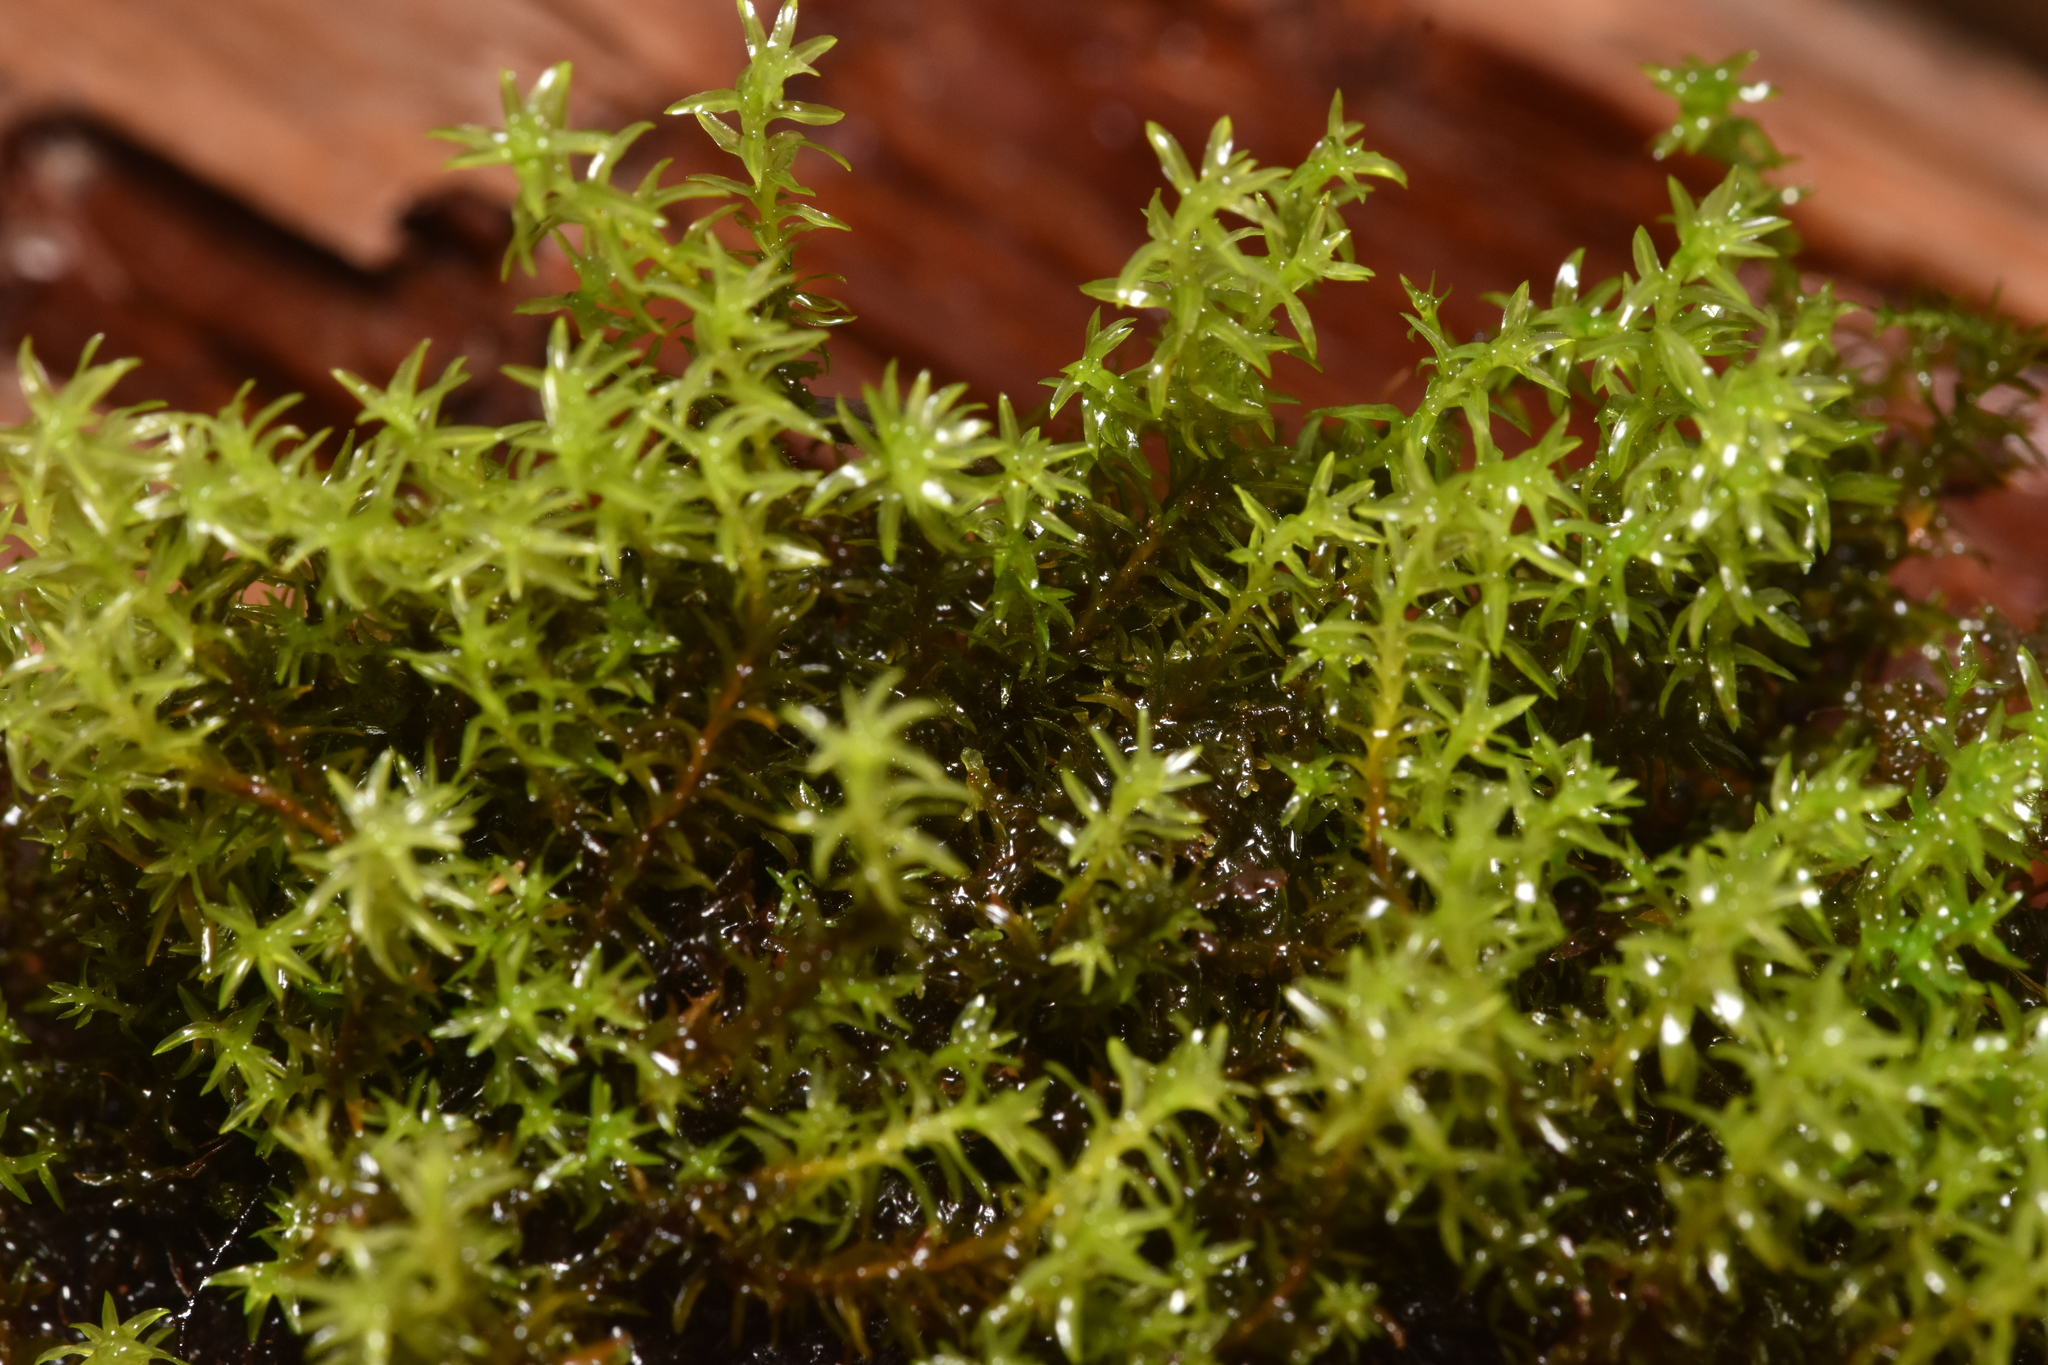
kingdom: Plantae
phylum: Bryophyta
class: Bryopsida
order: Dicranales
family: Aongstroemiaceae
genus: Dichodontium
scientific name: Dichodontium pellucidum
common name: Transparent fork moss
